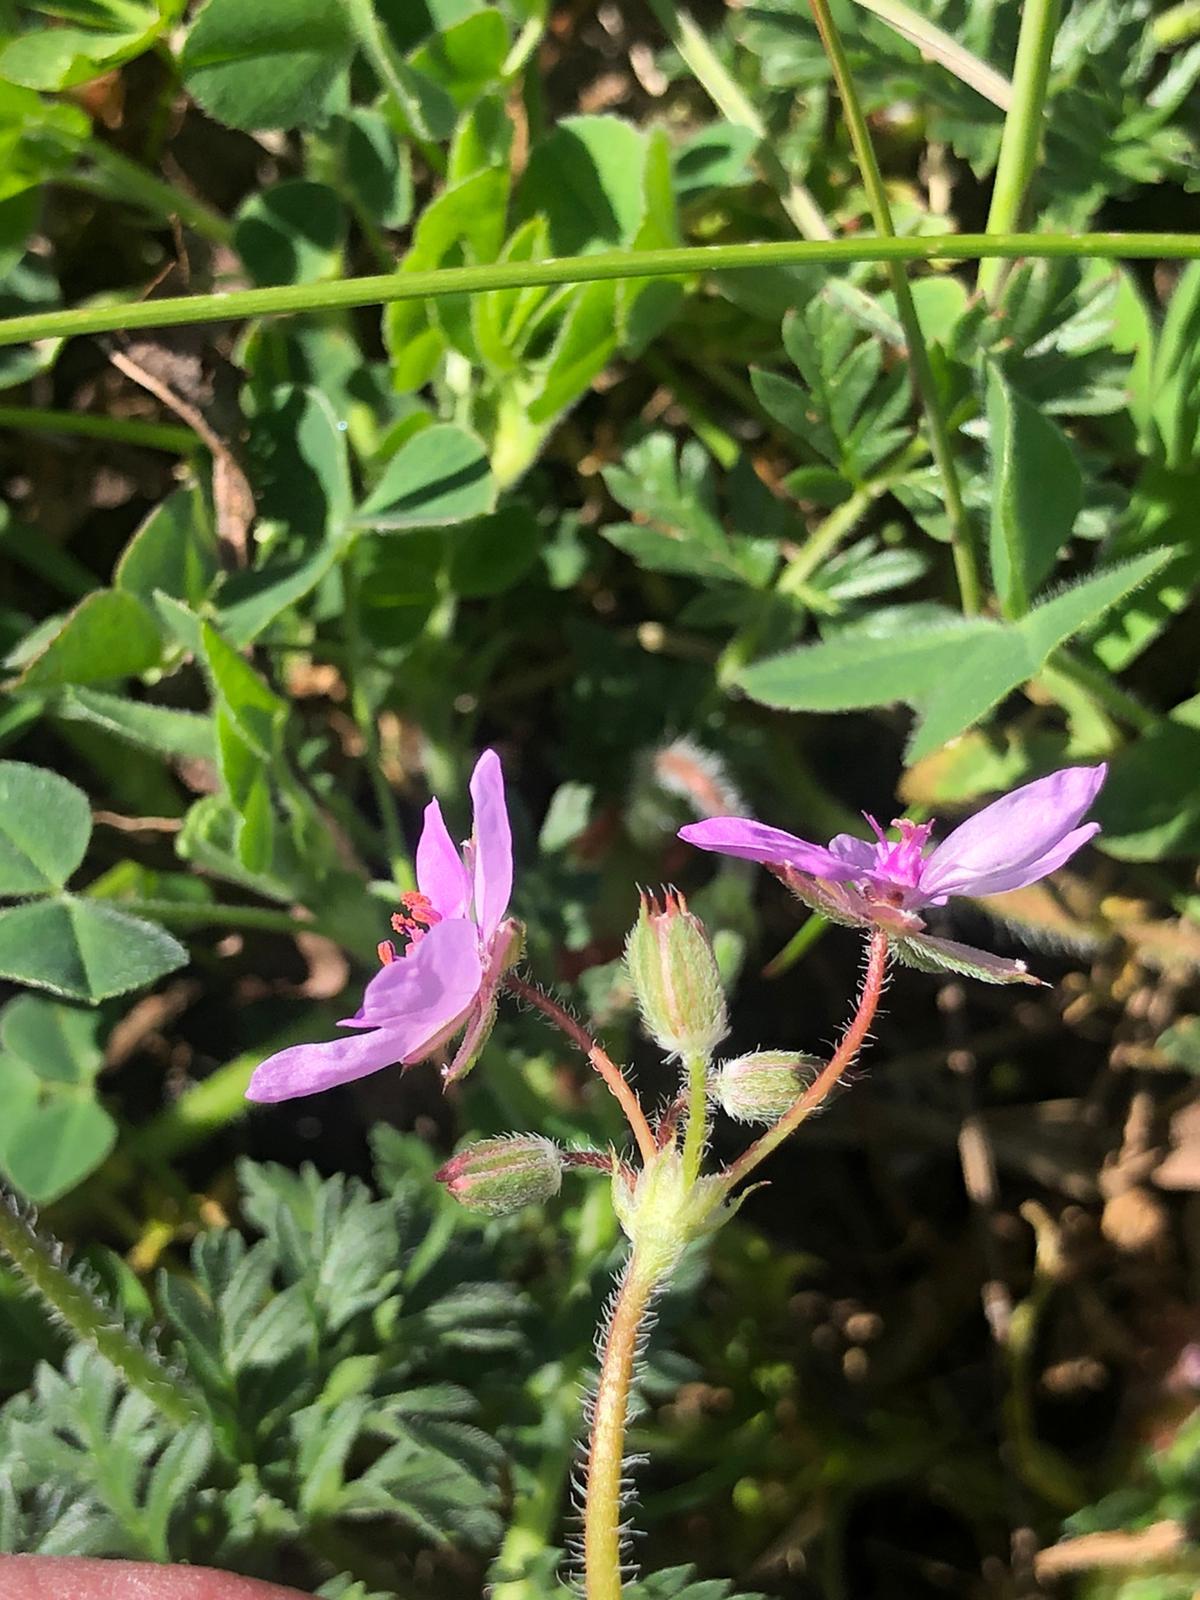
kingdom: Plantae
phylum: Tracheophyta
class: Magnoliopsida
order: Geraniales
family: Geraniaceae
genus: Erodium
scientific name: Erodium cicutarium
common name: Common stork's-bill
